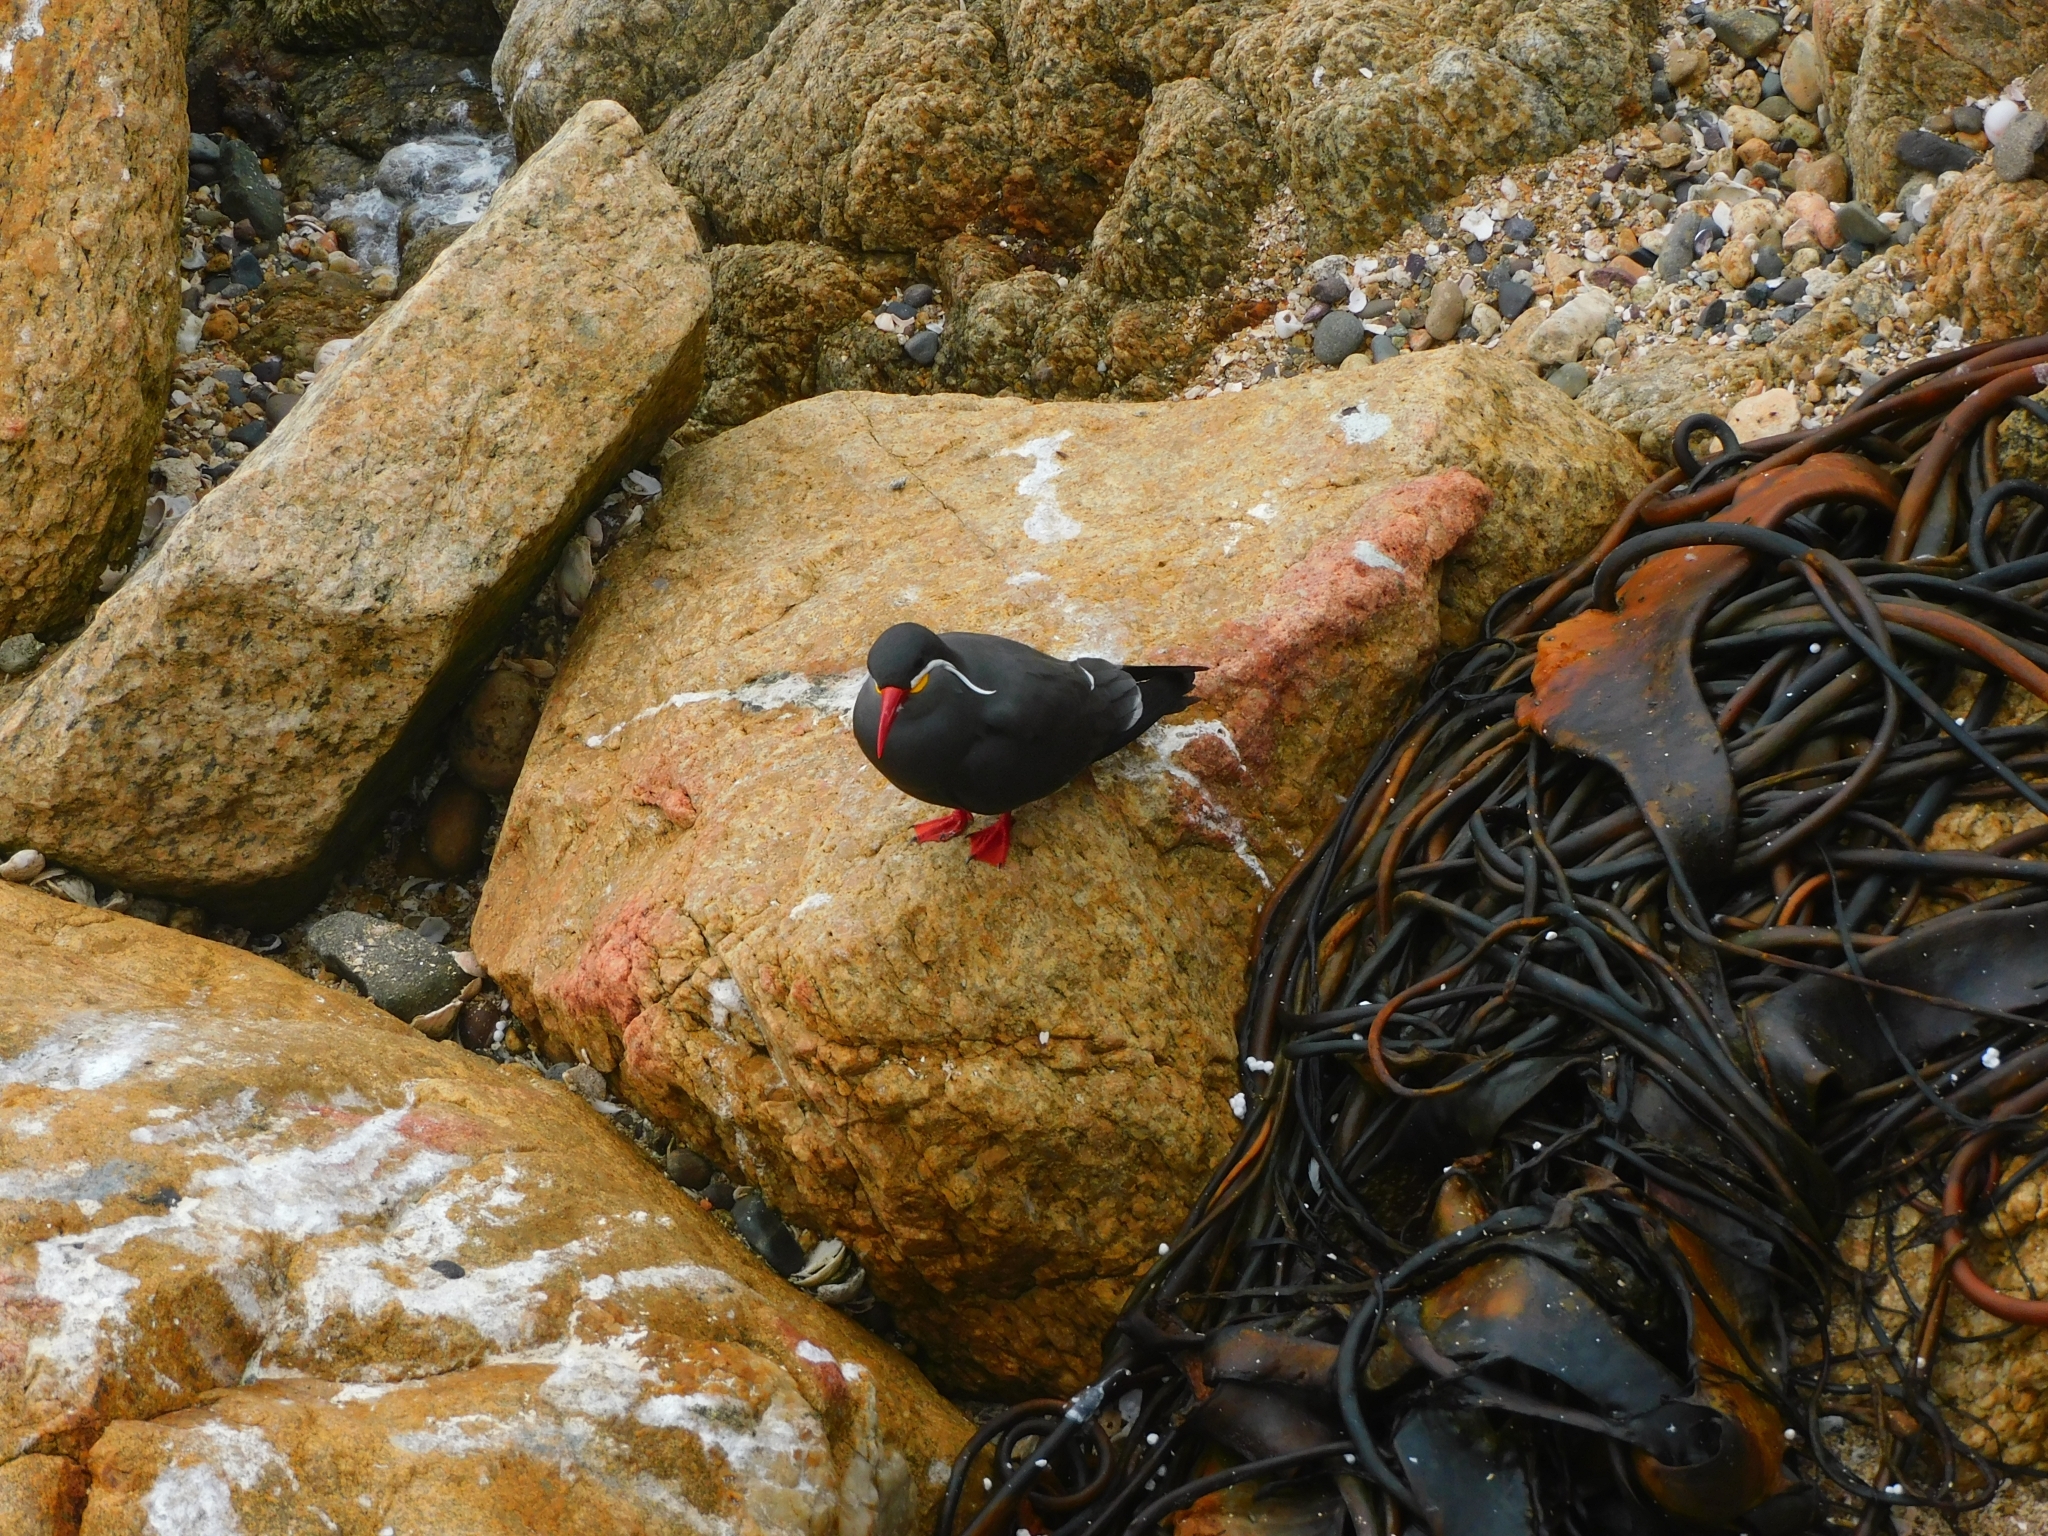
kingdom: Animalia
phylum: Chordata
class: Aves
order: Charadriiformes
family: Laridae
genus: Larosterna
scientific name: Larosterna inca
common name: Inca tern
